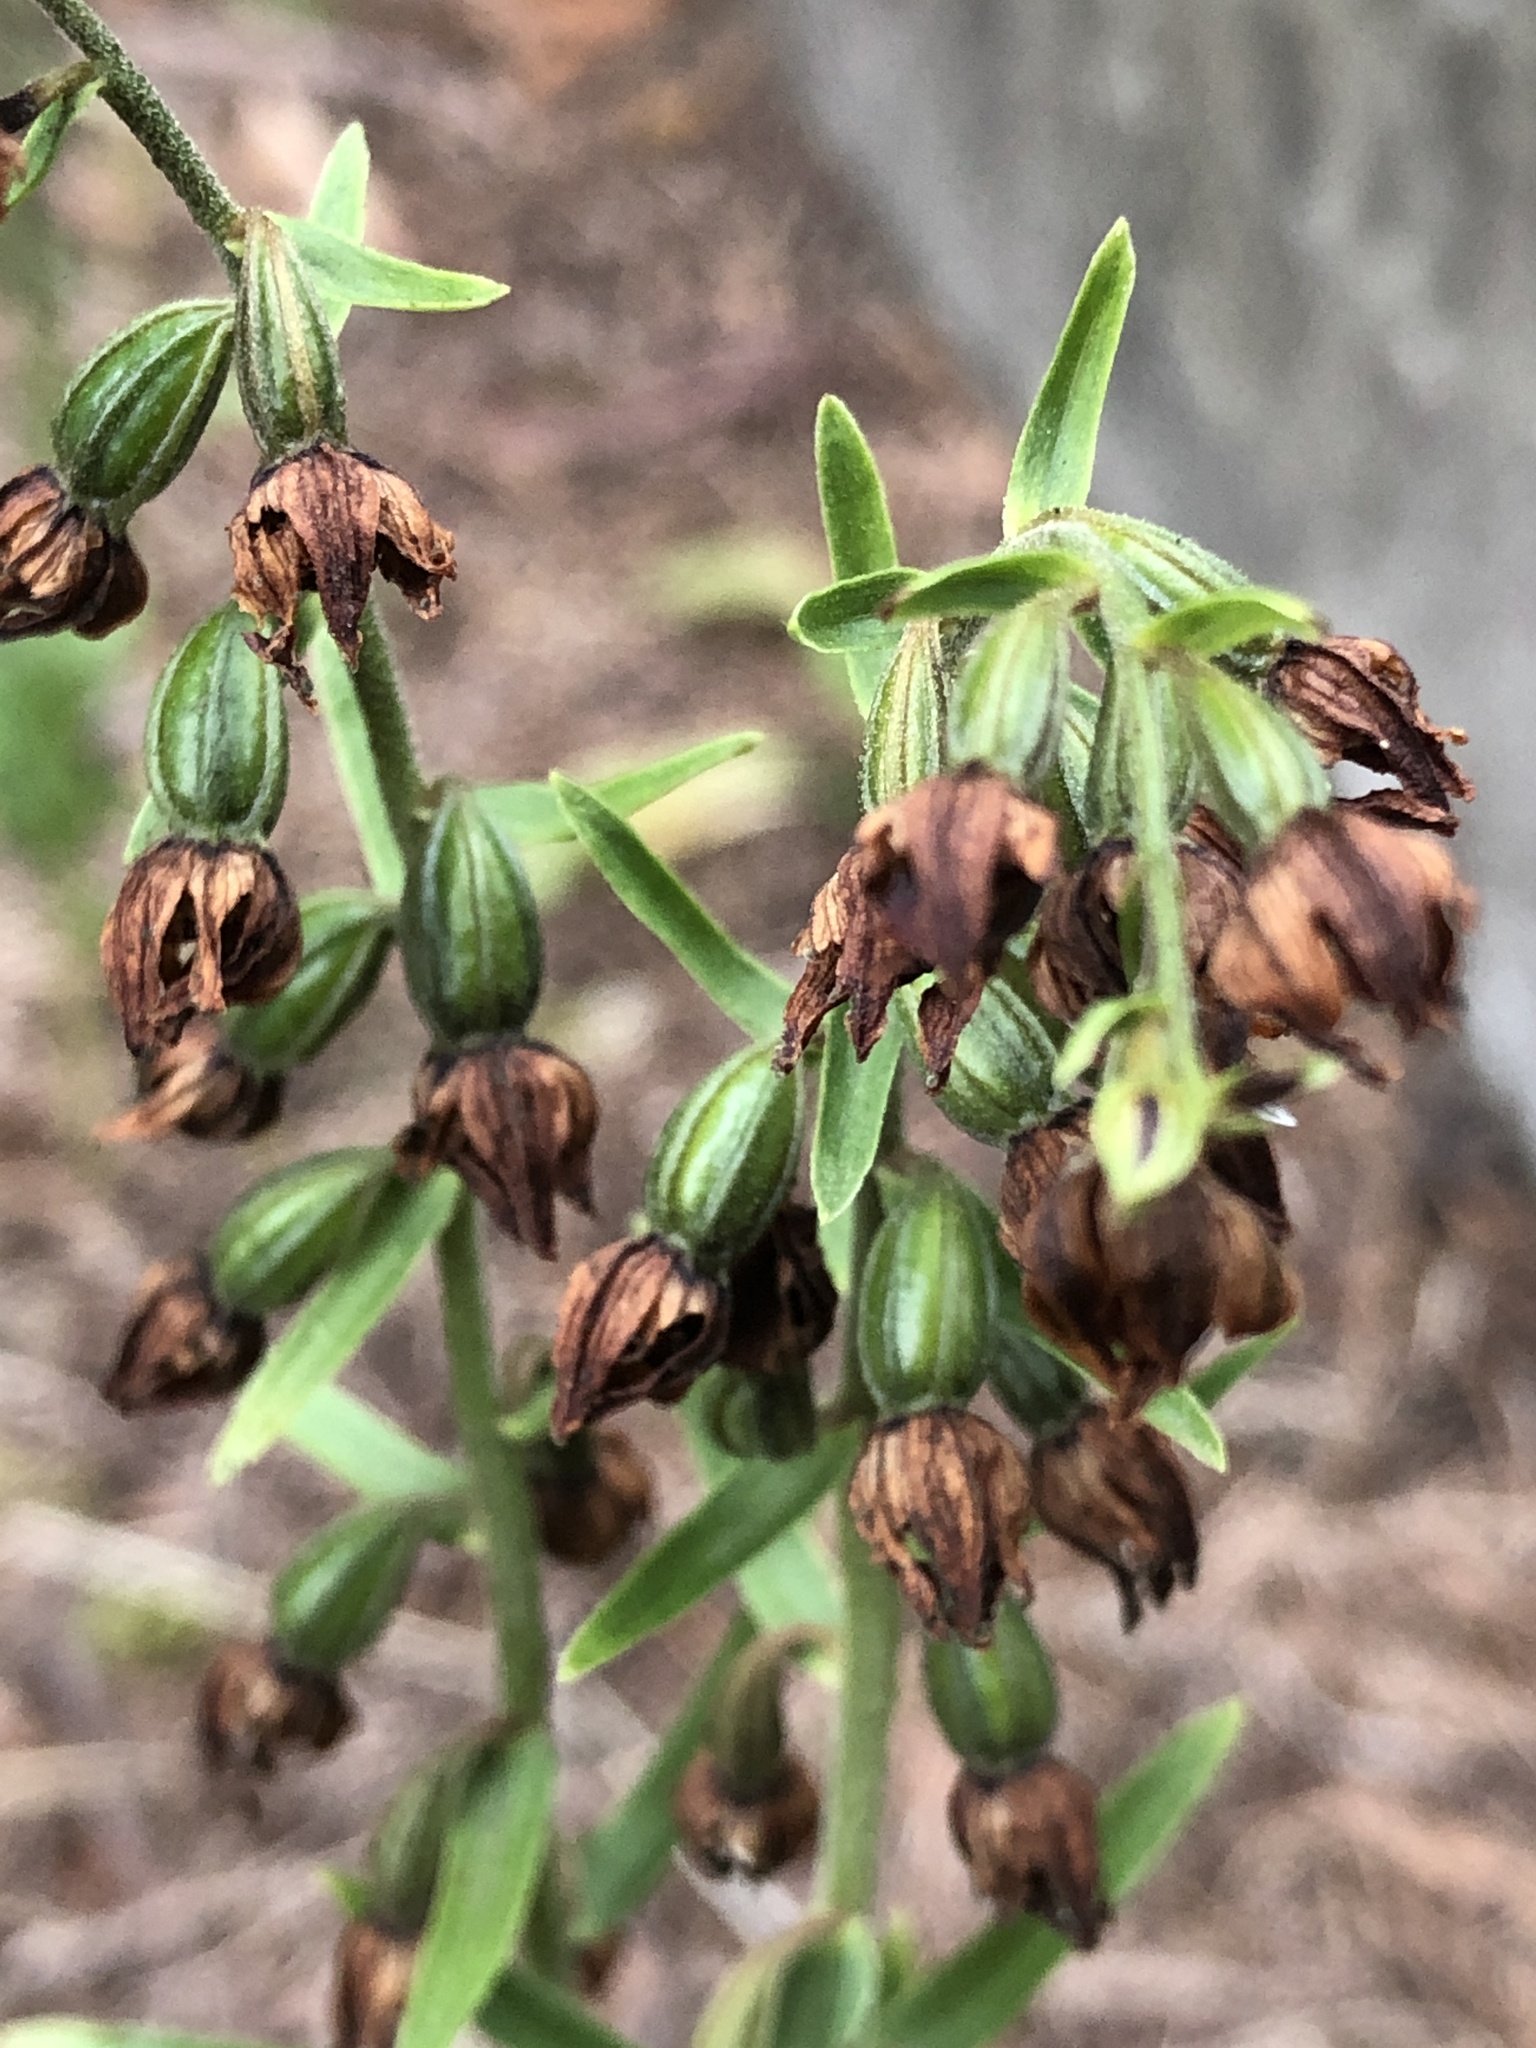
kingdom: Plantae
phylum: Tracheophyta
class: Liliopsida
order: Asparagales
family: Orchidaceae
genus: Epipactis
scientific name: Epipactis helleborine
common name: Broad-leaved helleborine
